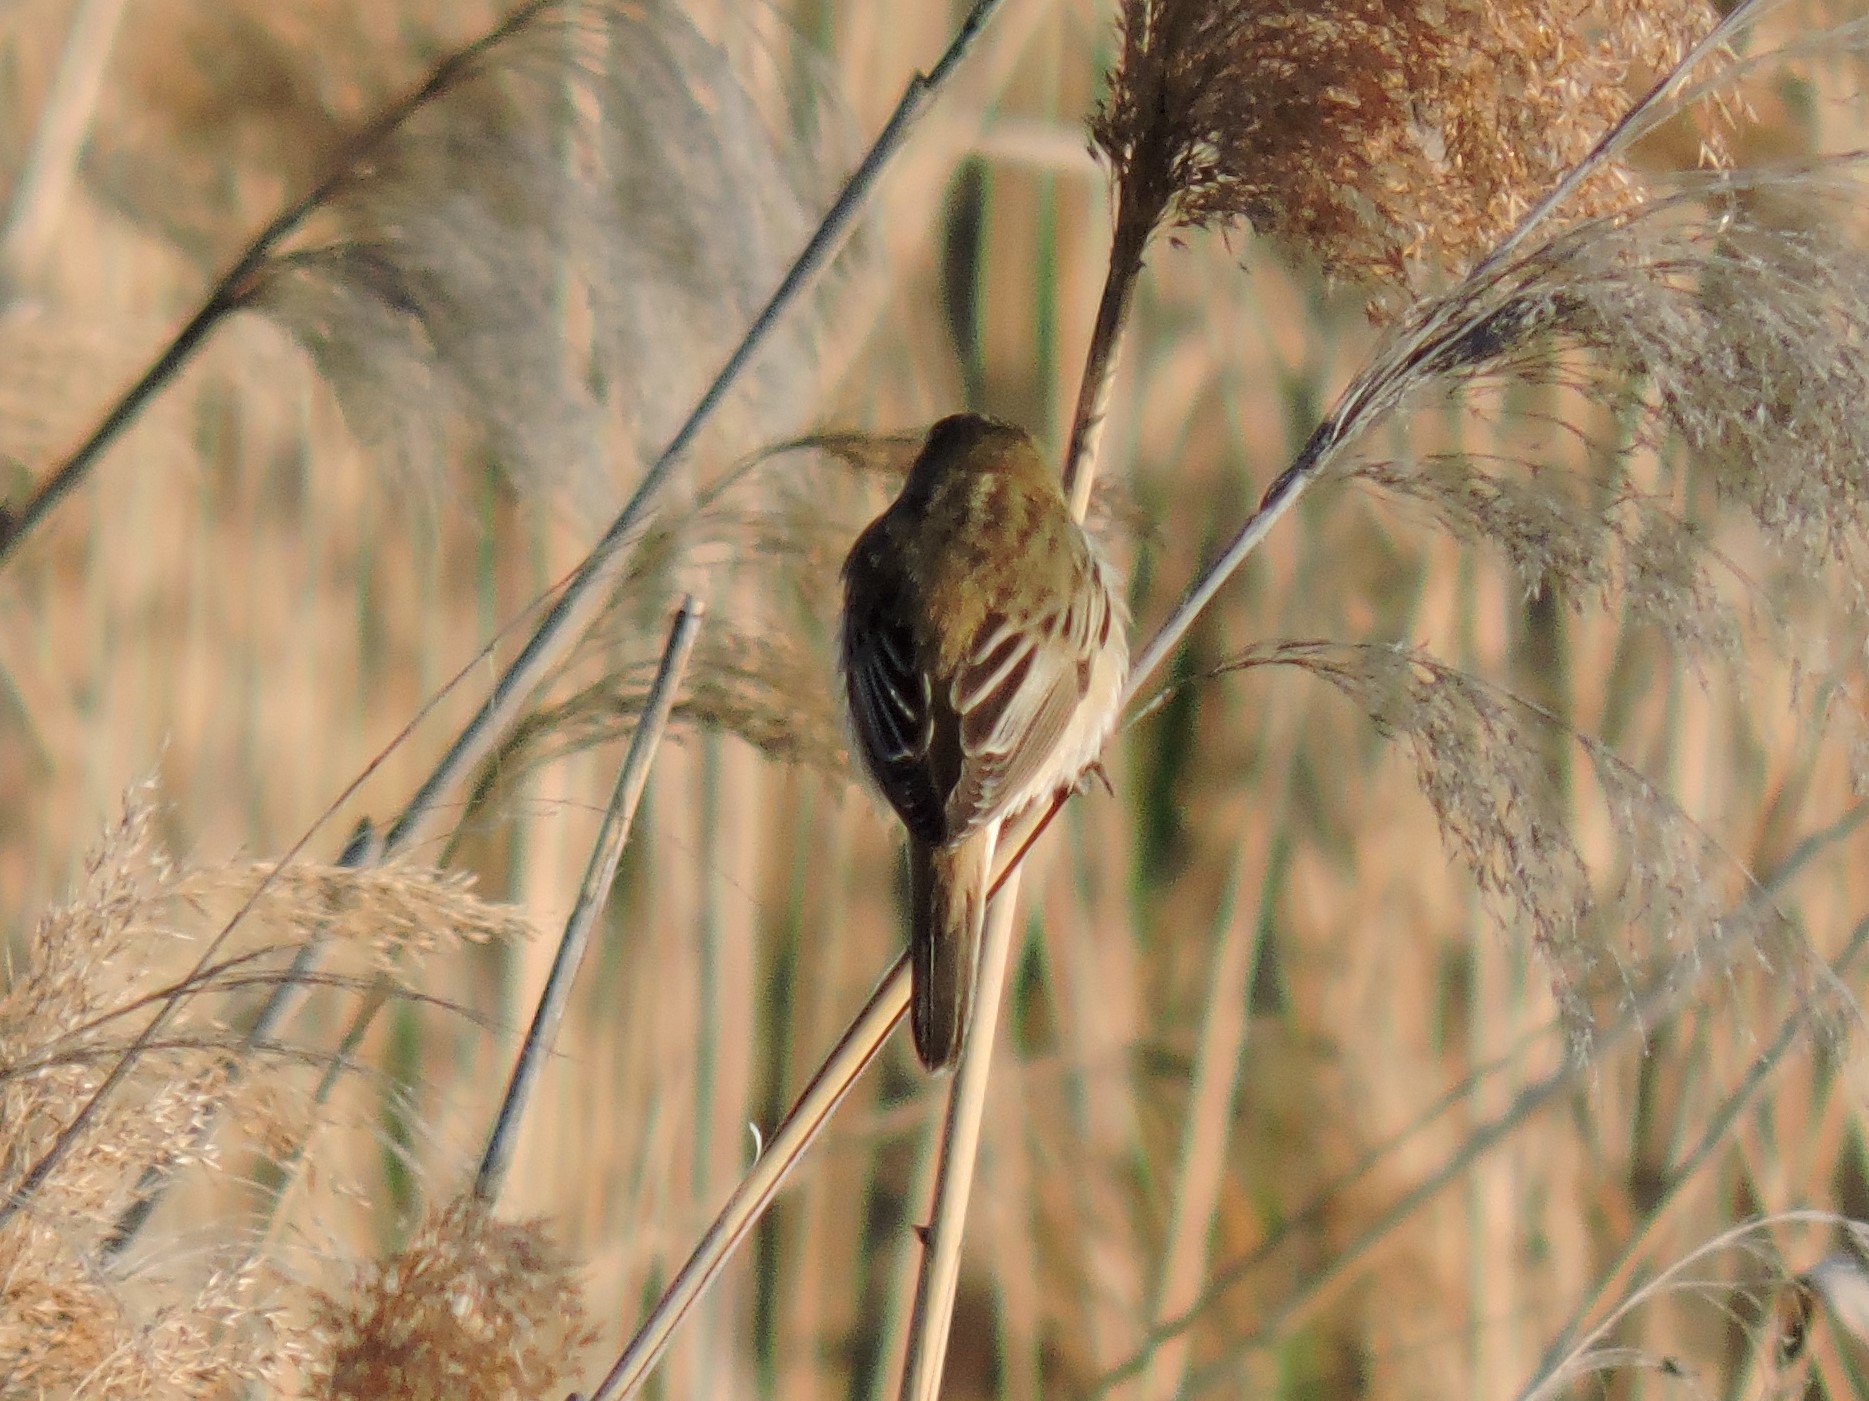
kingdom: Animalia
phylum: Chordata
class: Aves
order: Passeriformes
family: Acrocephalidae
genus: Acrocephalus
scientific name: Acrocephalus schoenobaenus
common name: Sedge warbler
